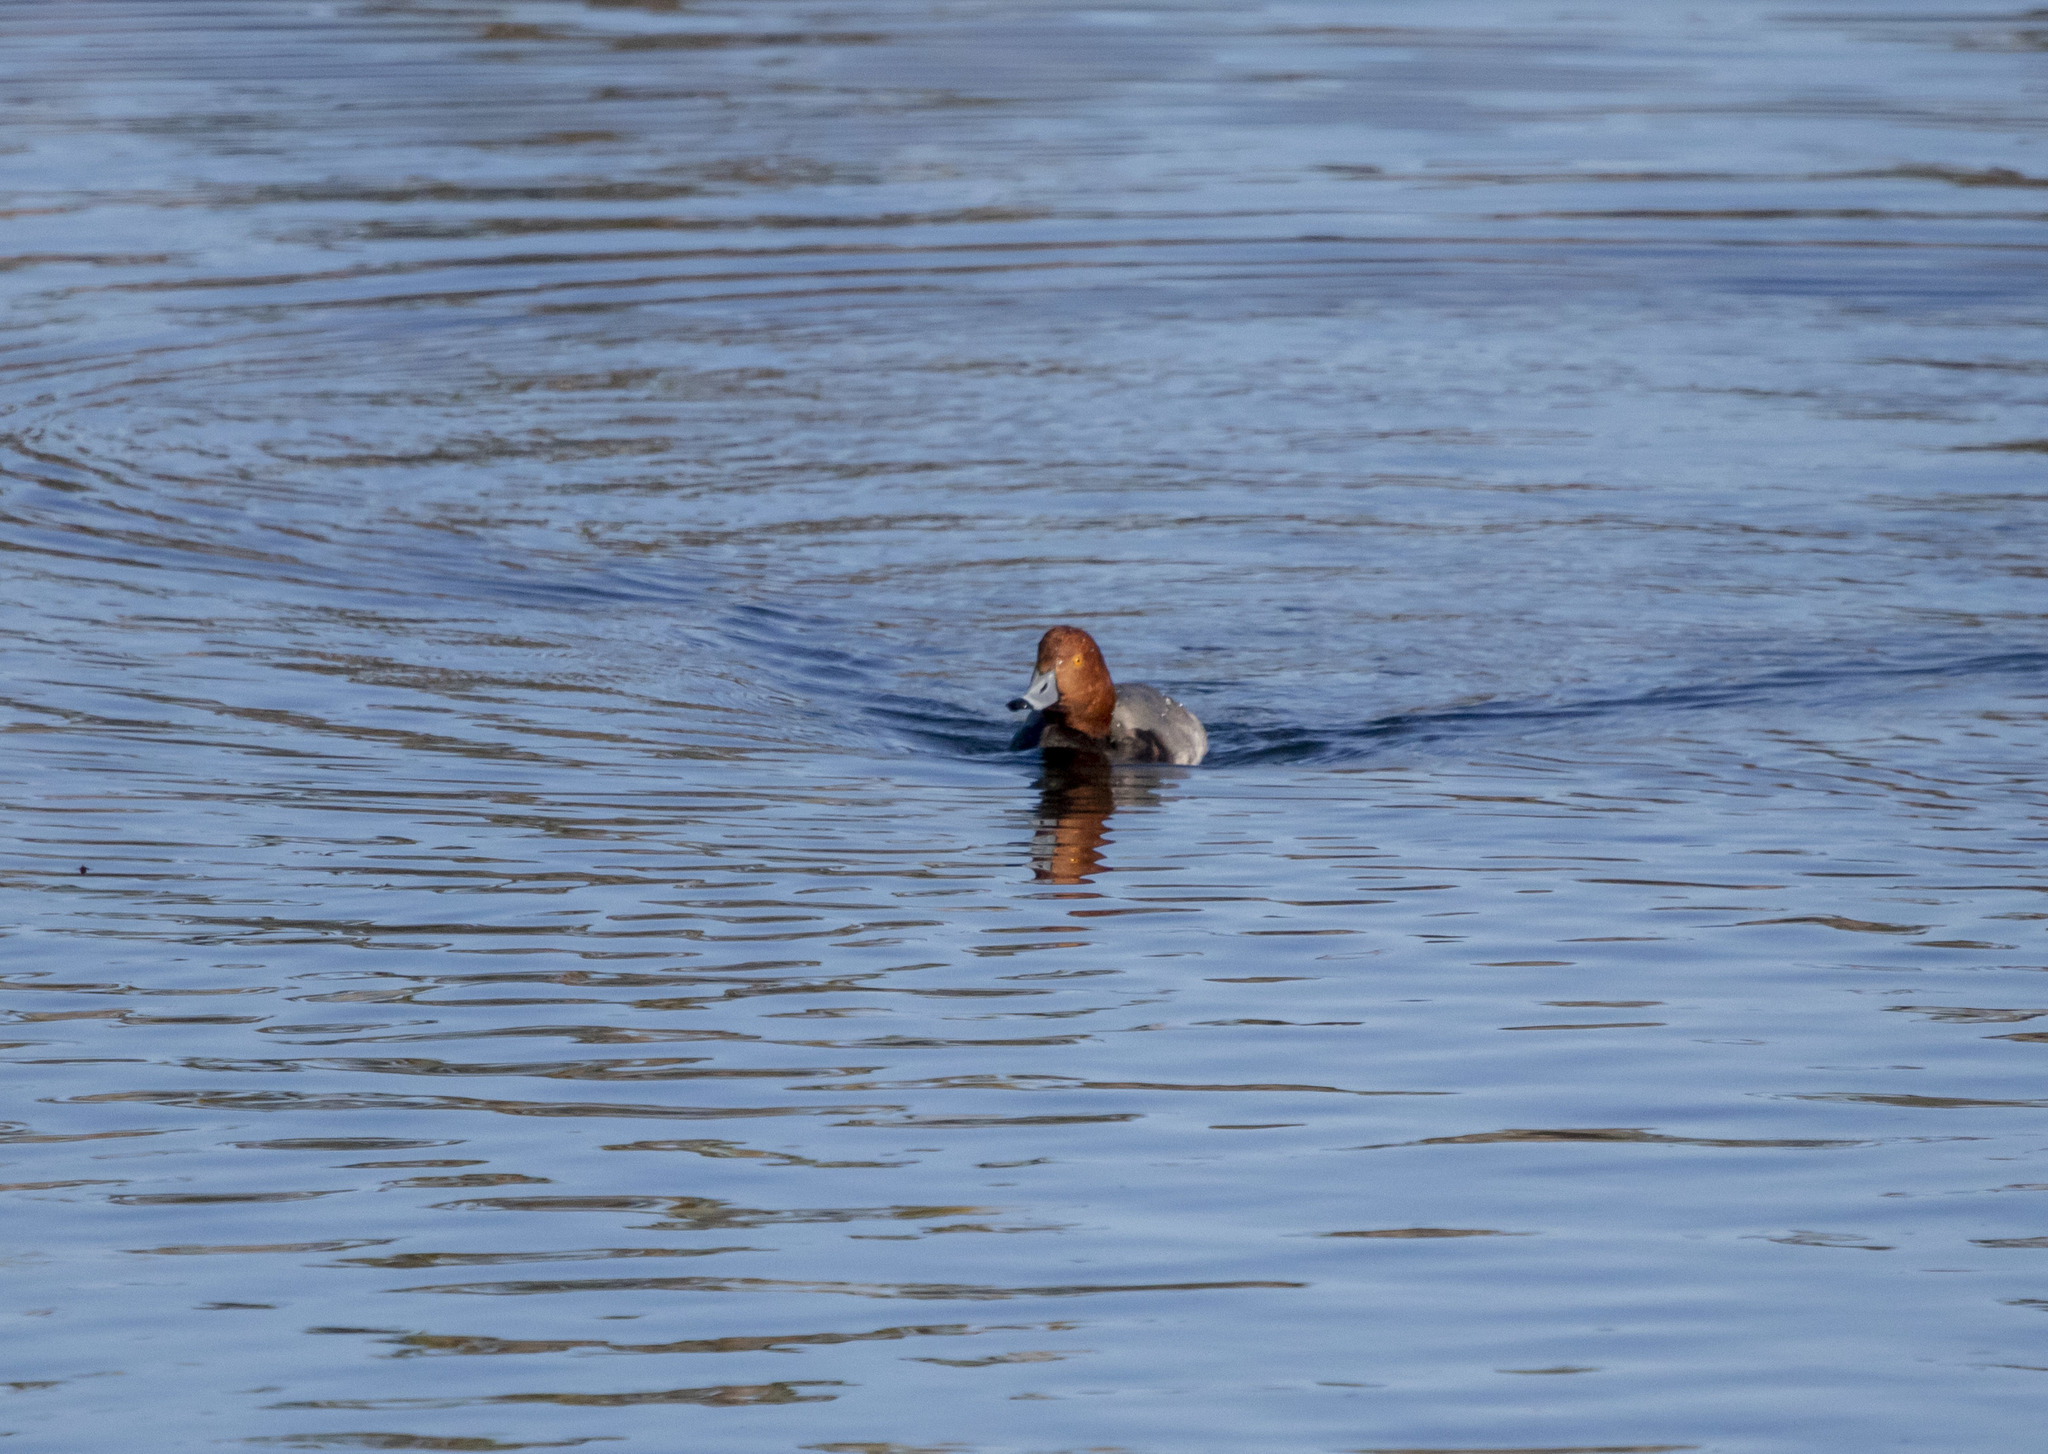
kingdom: Animalia
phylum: Chordata
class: Aves
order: Anseriformes
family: Anatidae
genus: Aythya
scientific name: Aythya americana
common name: Redhead
